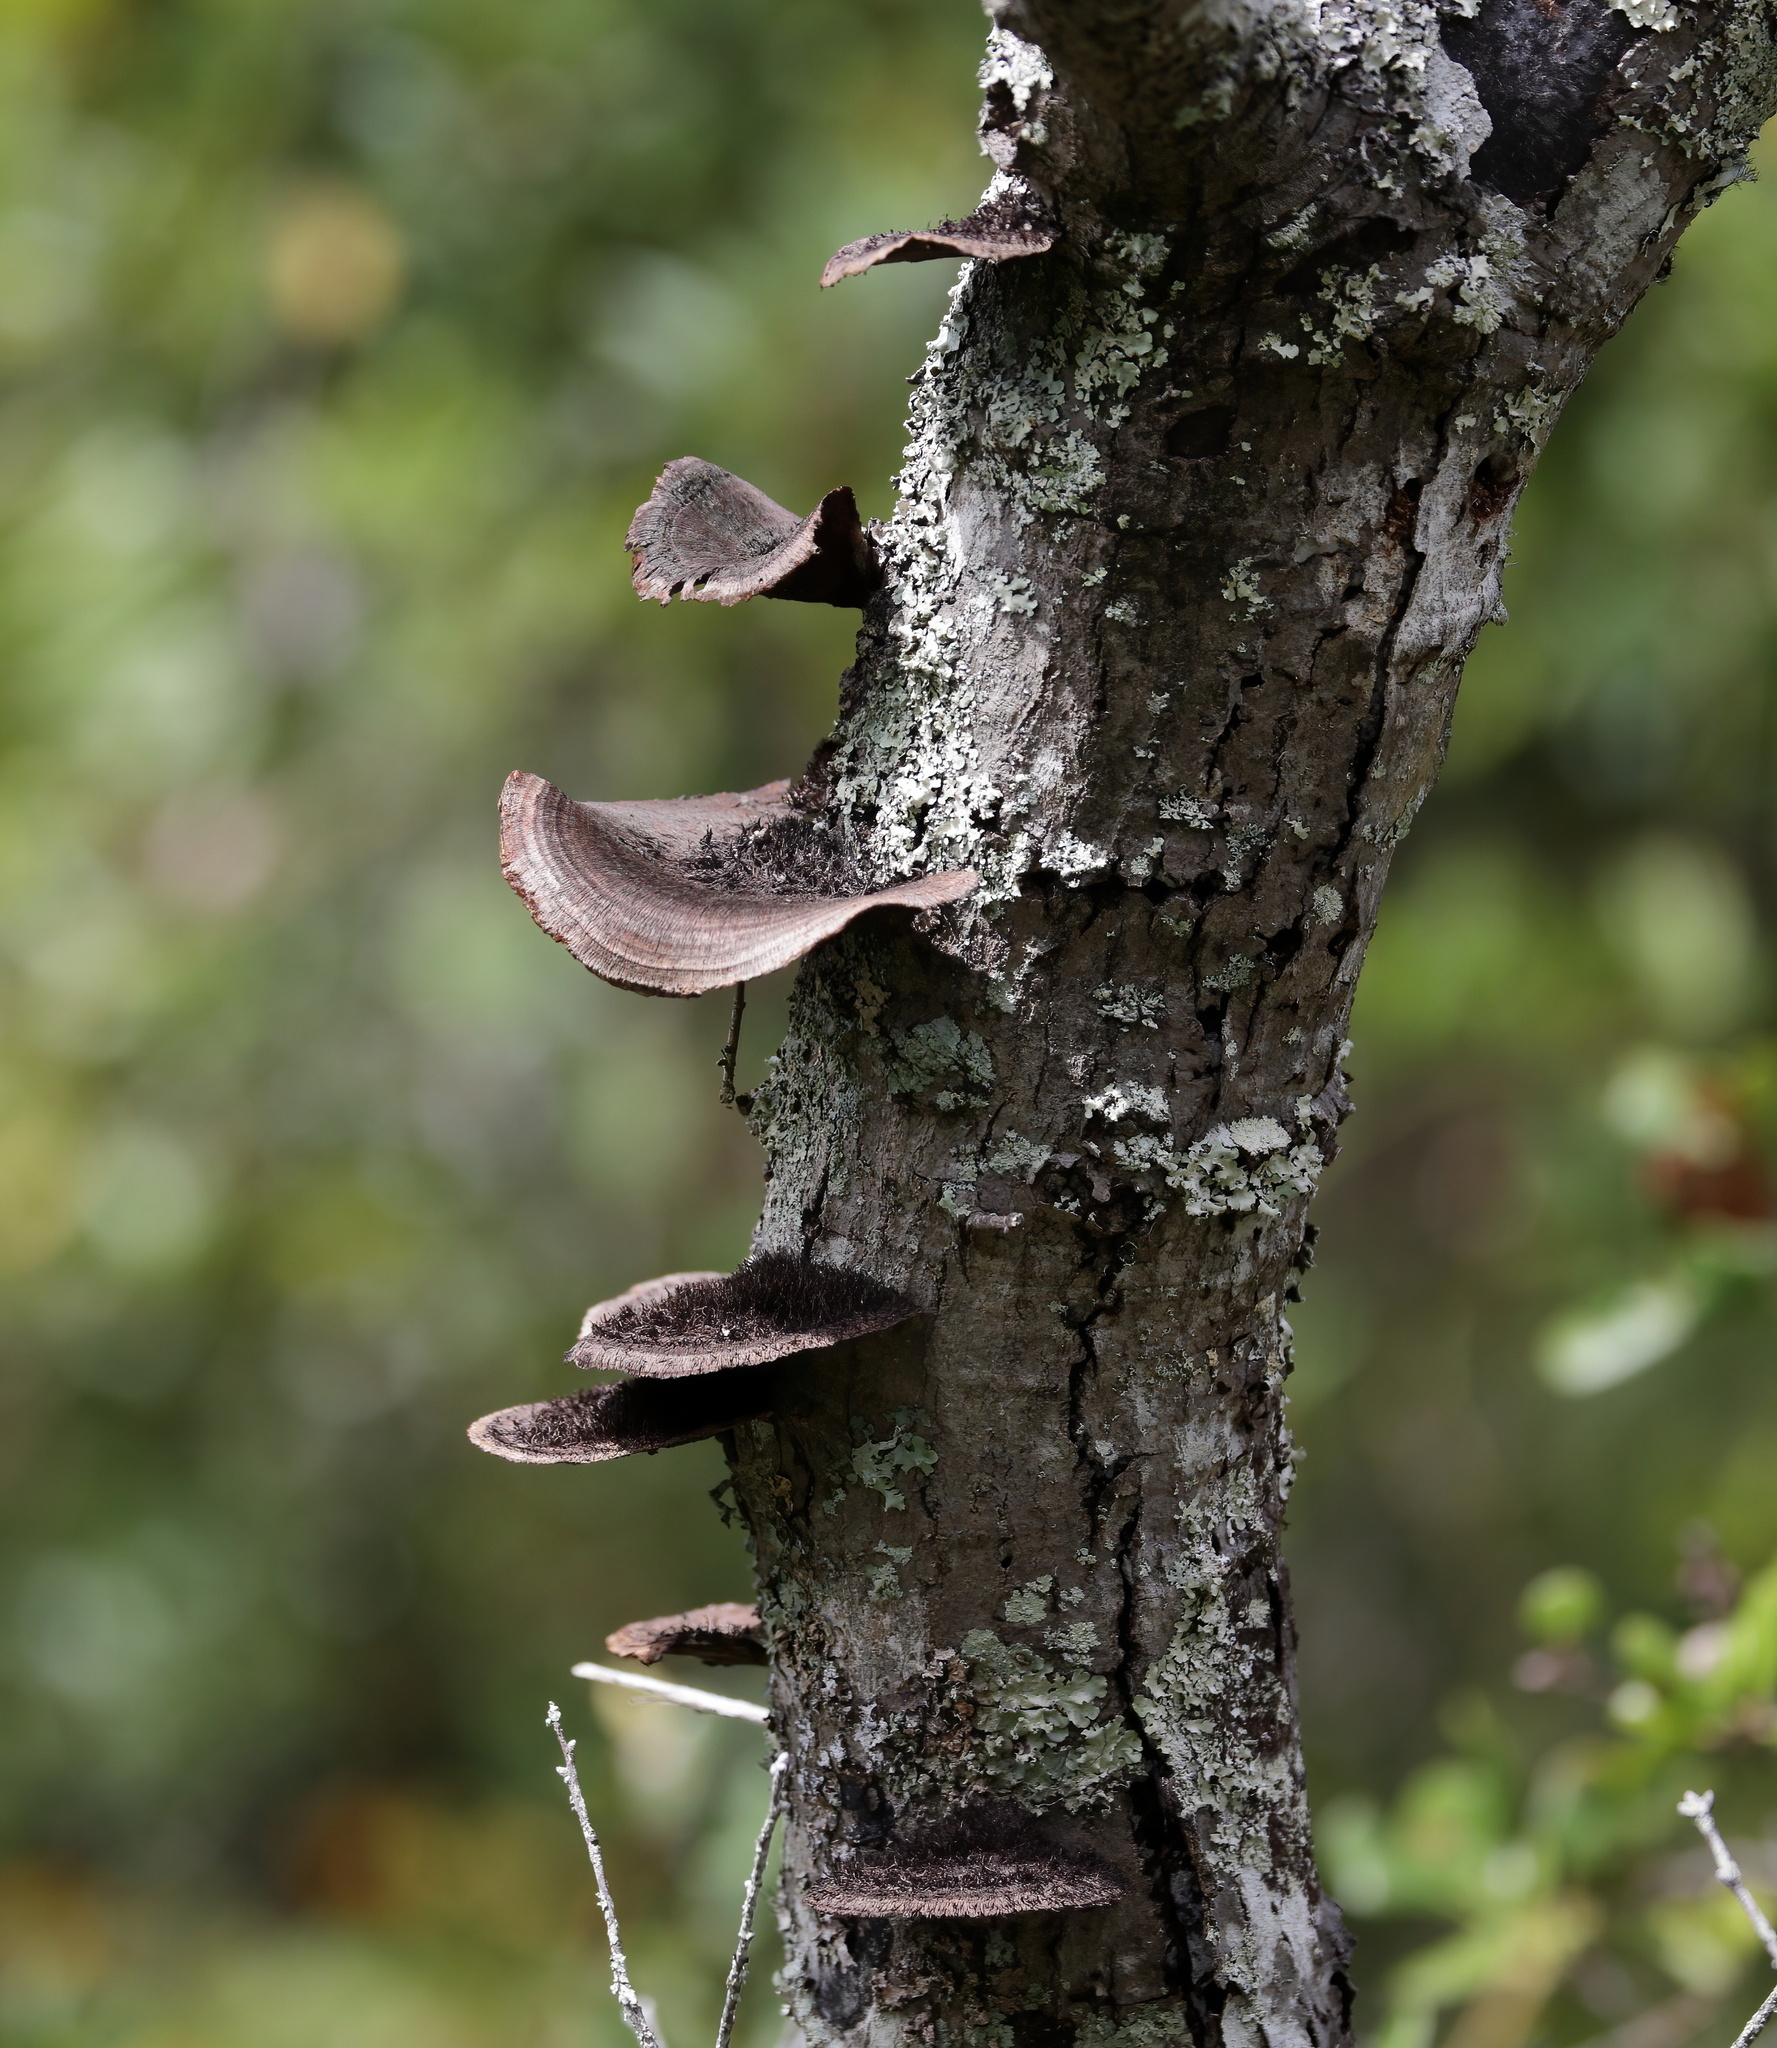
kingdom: Fungi
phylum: Basidiomycota
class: Agaricomycetes
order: Polyporales
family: Cerrenaceae
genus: Cerrena
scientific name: Cerrena hydnoides
